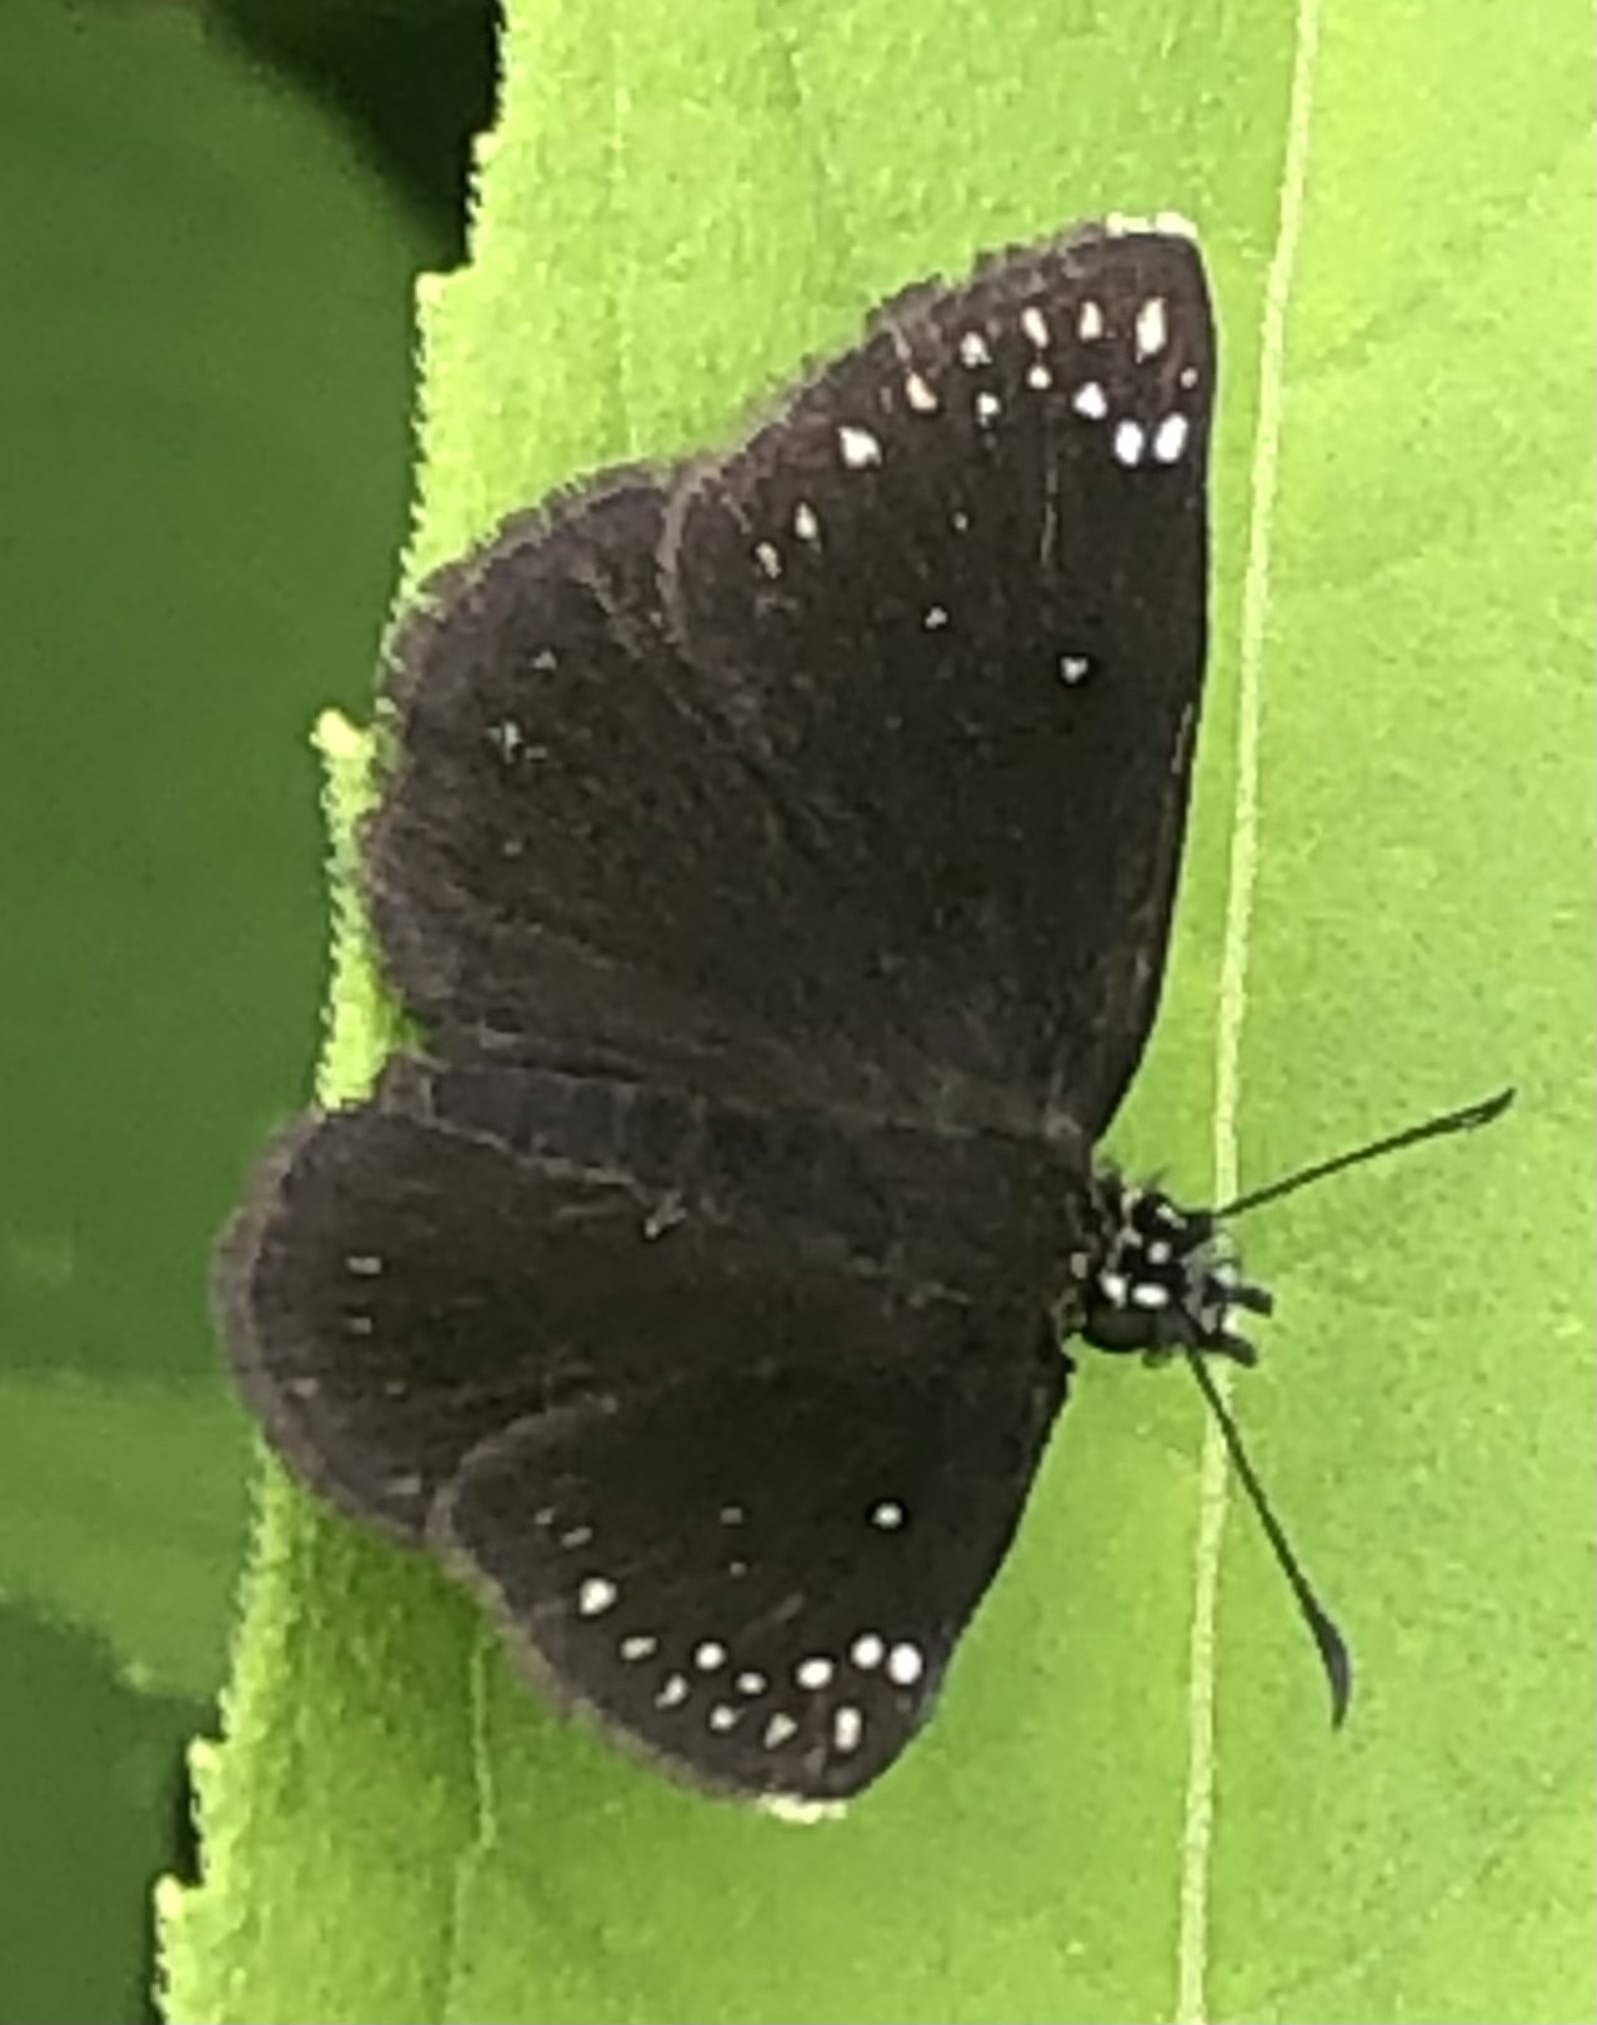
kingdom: Animalia
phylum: Arthropoda
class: Insecta
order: Lepidoptera
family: Hesperiidae
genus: Pholisora
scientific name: Pholisora catullus
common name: Common sootywing
